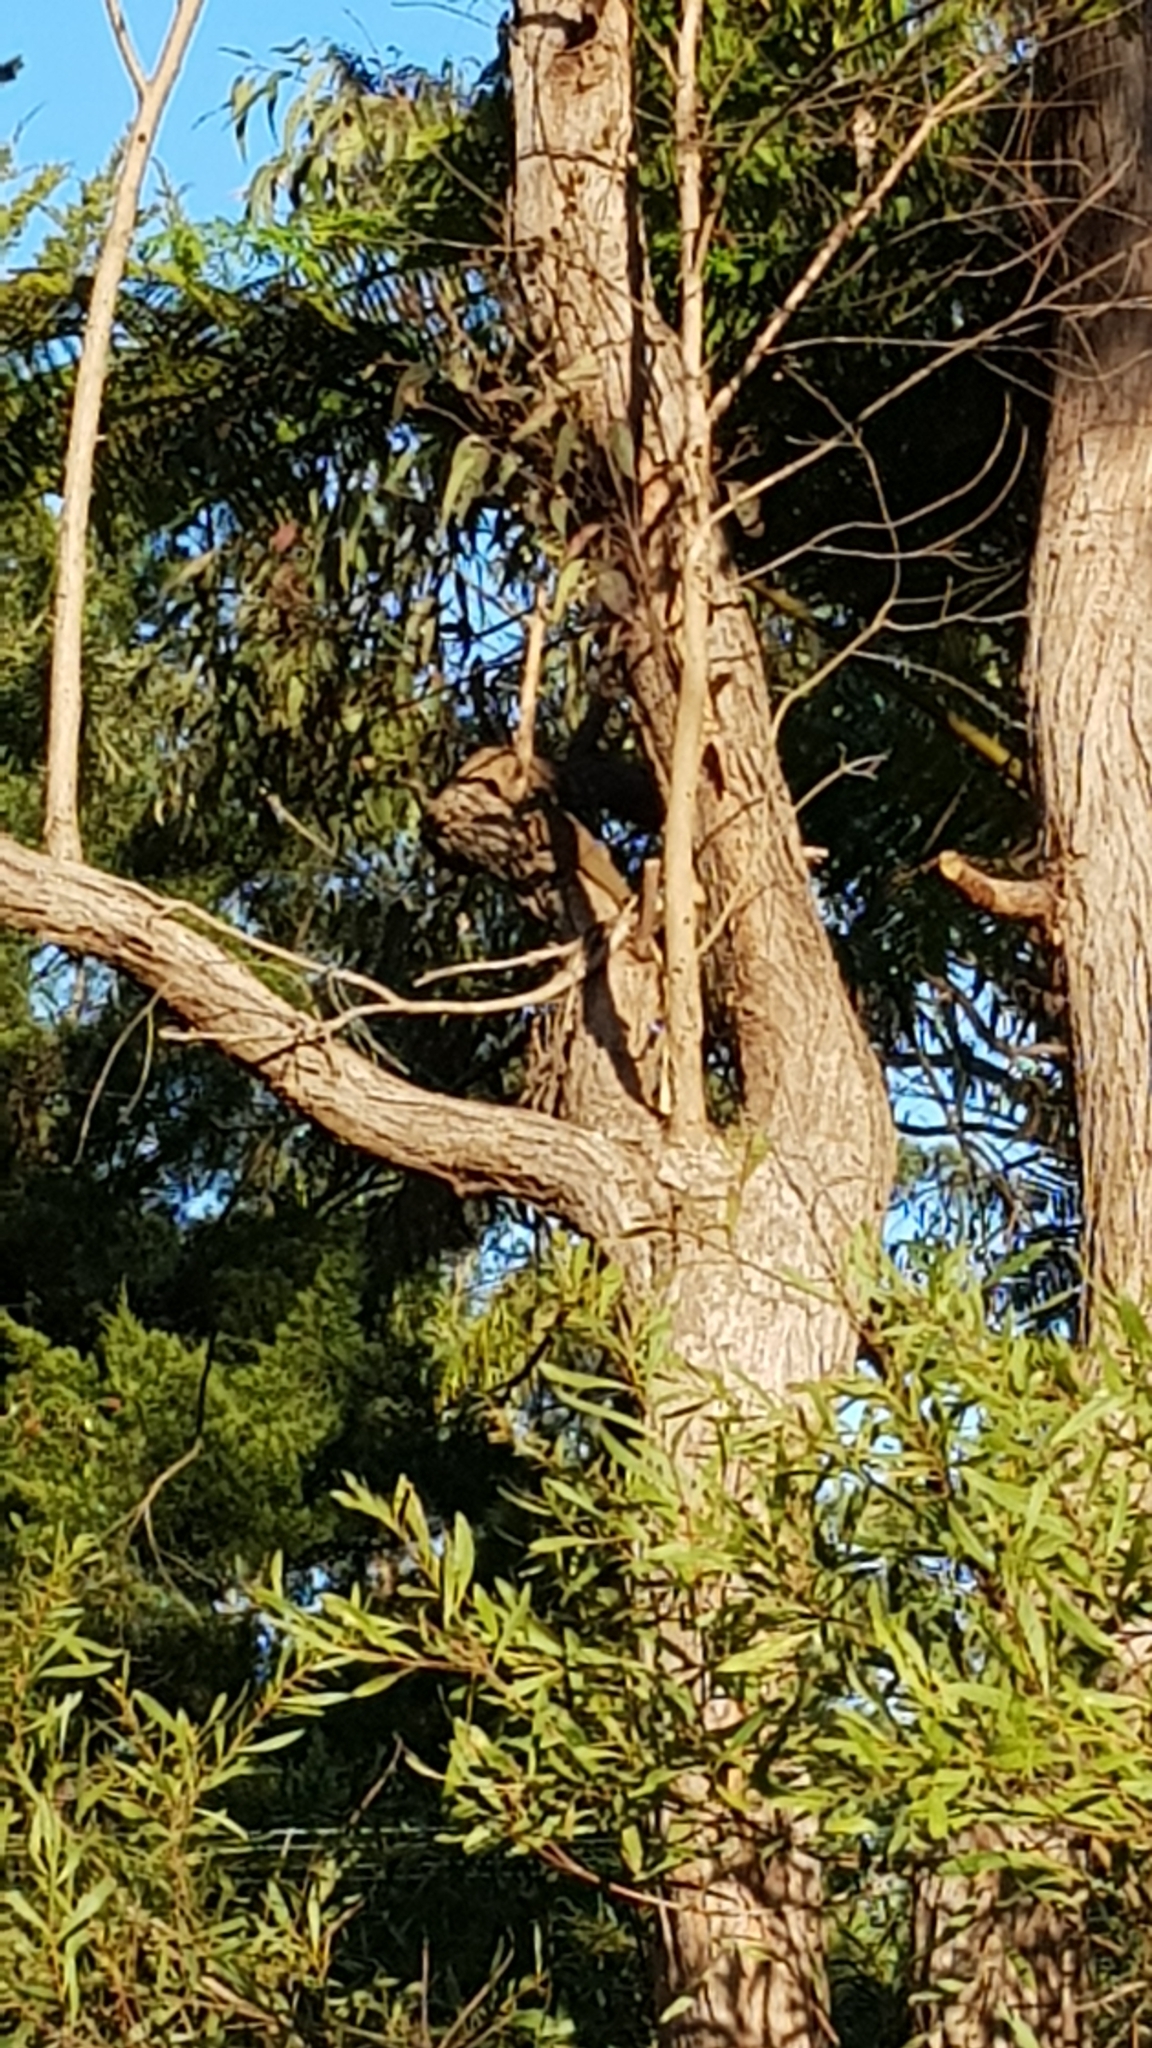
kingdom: Animalia
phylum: Chordata
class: Squamata
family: Agamidae
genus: Intellagama
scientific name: Intellagama lesueurii
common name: Eastern water dragon
